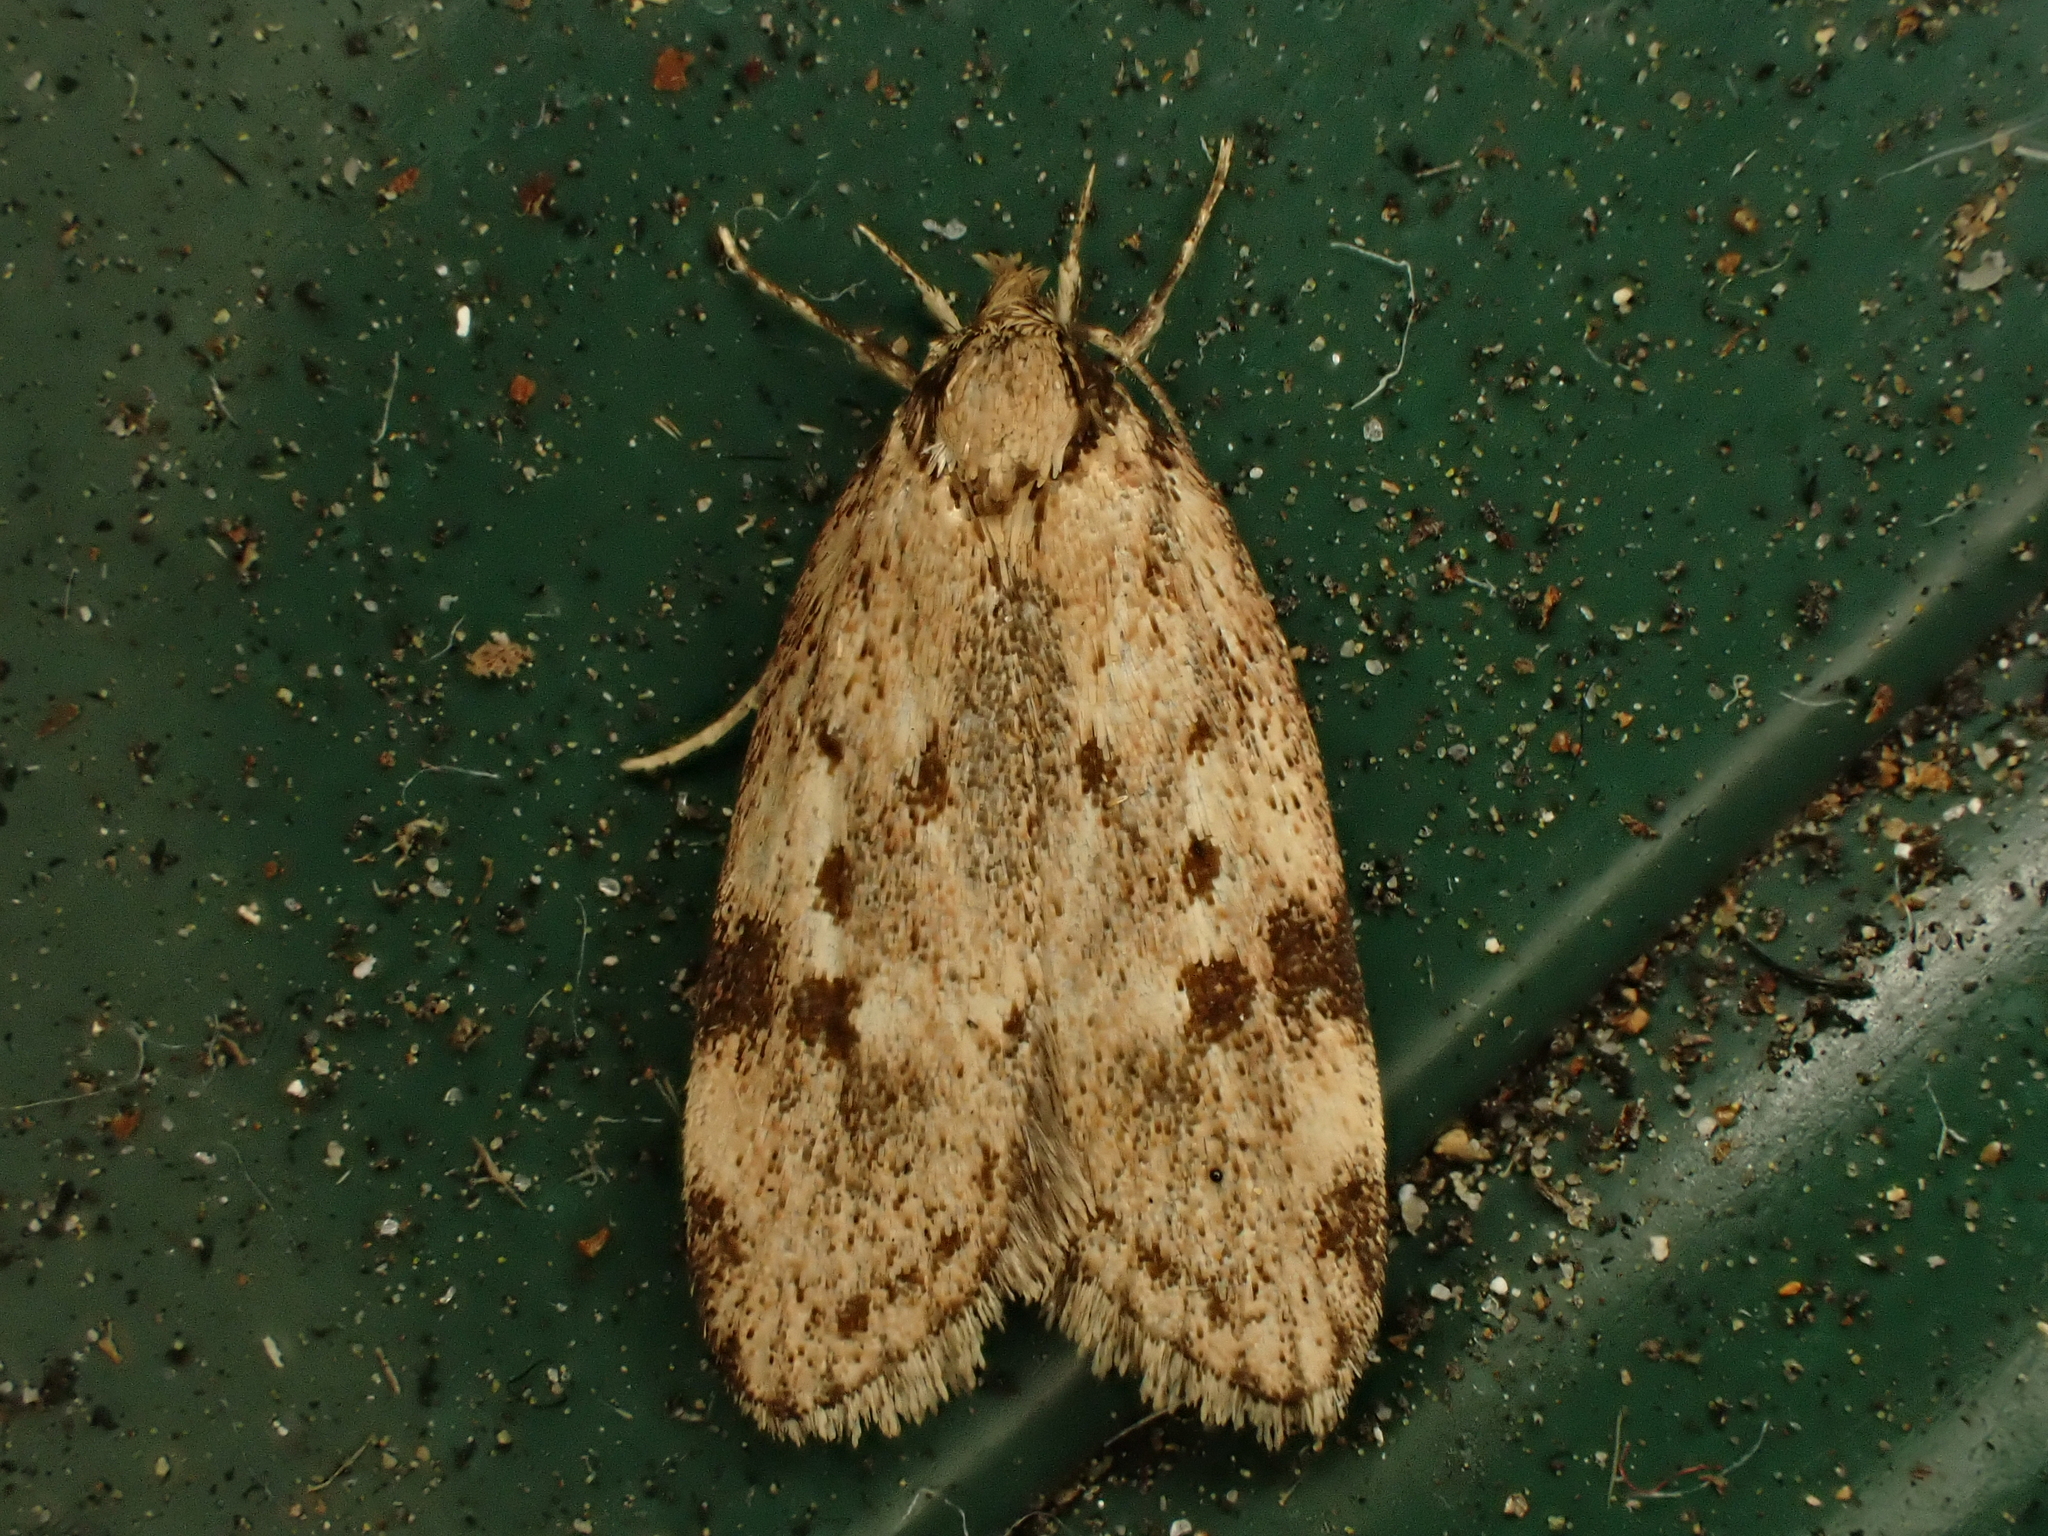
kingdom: Animalia
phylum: Arthropoda
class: Insecta
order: Lepidoptera
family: Oecophoridae
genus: Eulechria
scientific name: Eulechria zophoessa
